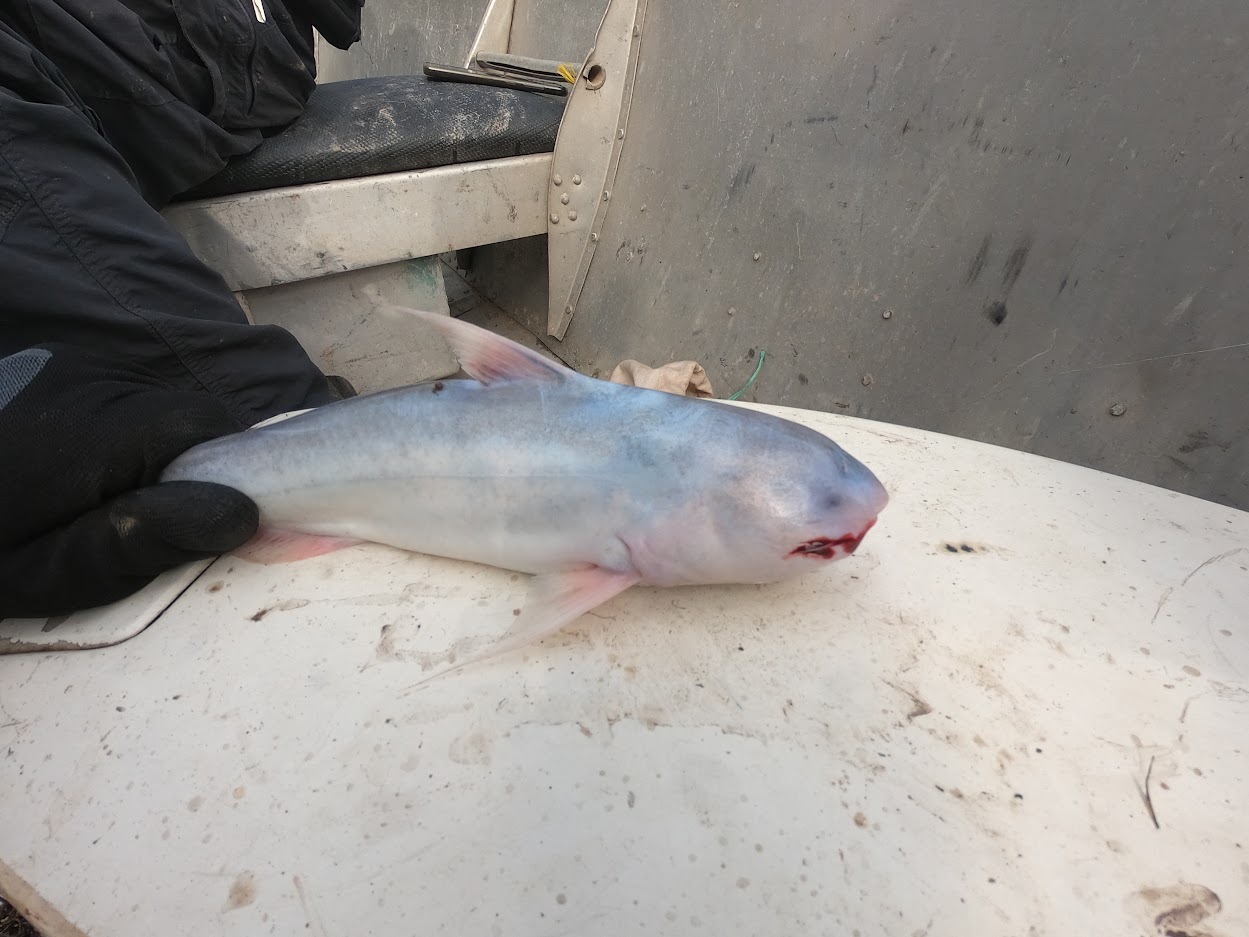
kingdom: Animalia
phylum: Chordata
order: Siluriformes
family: Cetopsidae
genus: Cetopsis
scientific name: Cetopsis coecutiens
